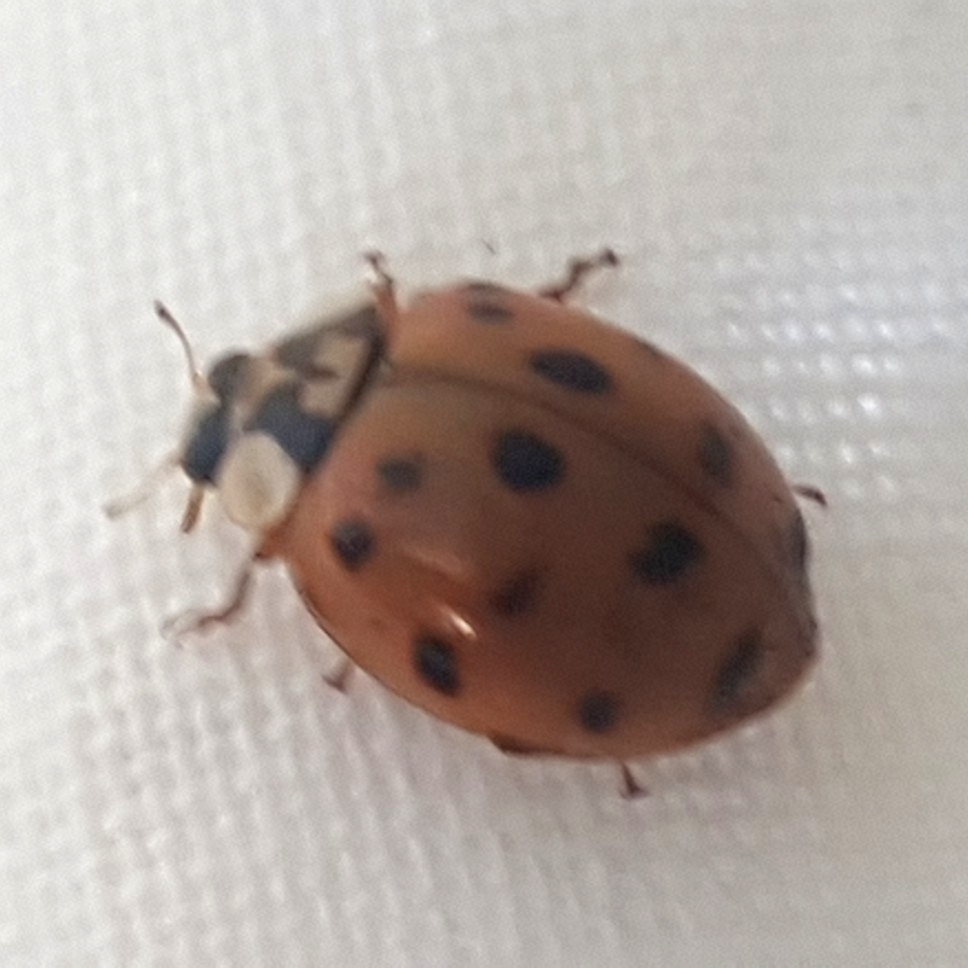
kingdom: Animalia
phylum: Arthropoda
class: Insecta
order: Coleoptera
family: Coccinellidae
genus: Harmonia
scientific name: Harmonia axyridis
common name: Harlequin ladybird
